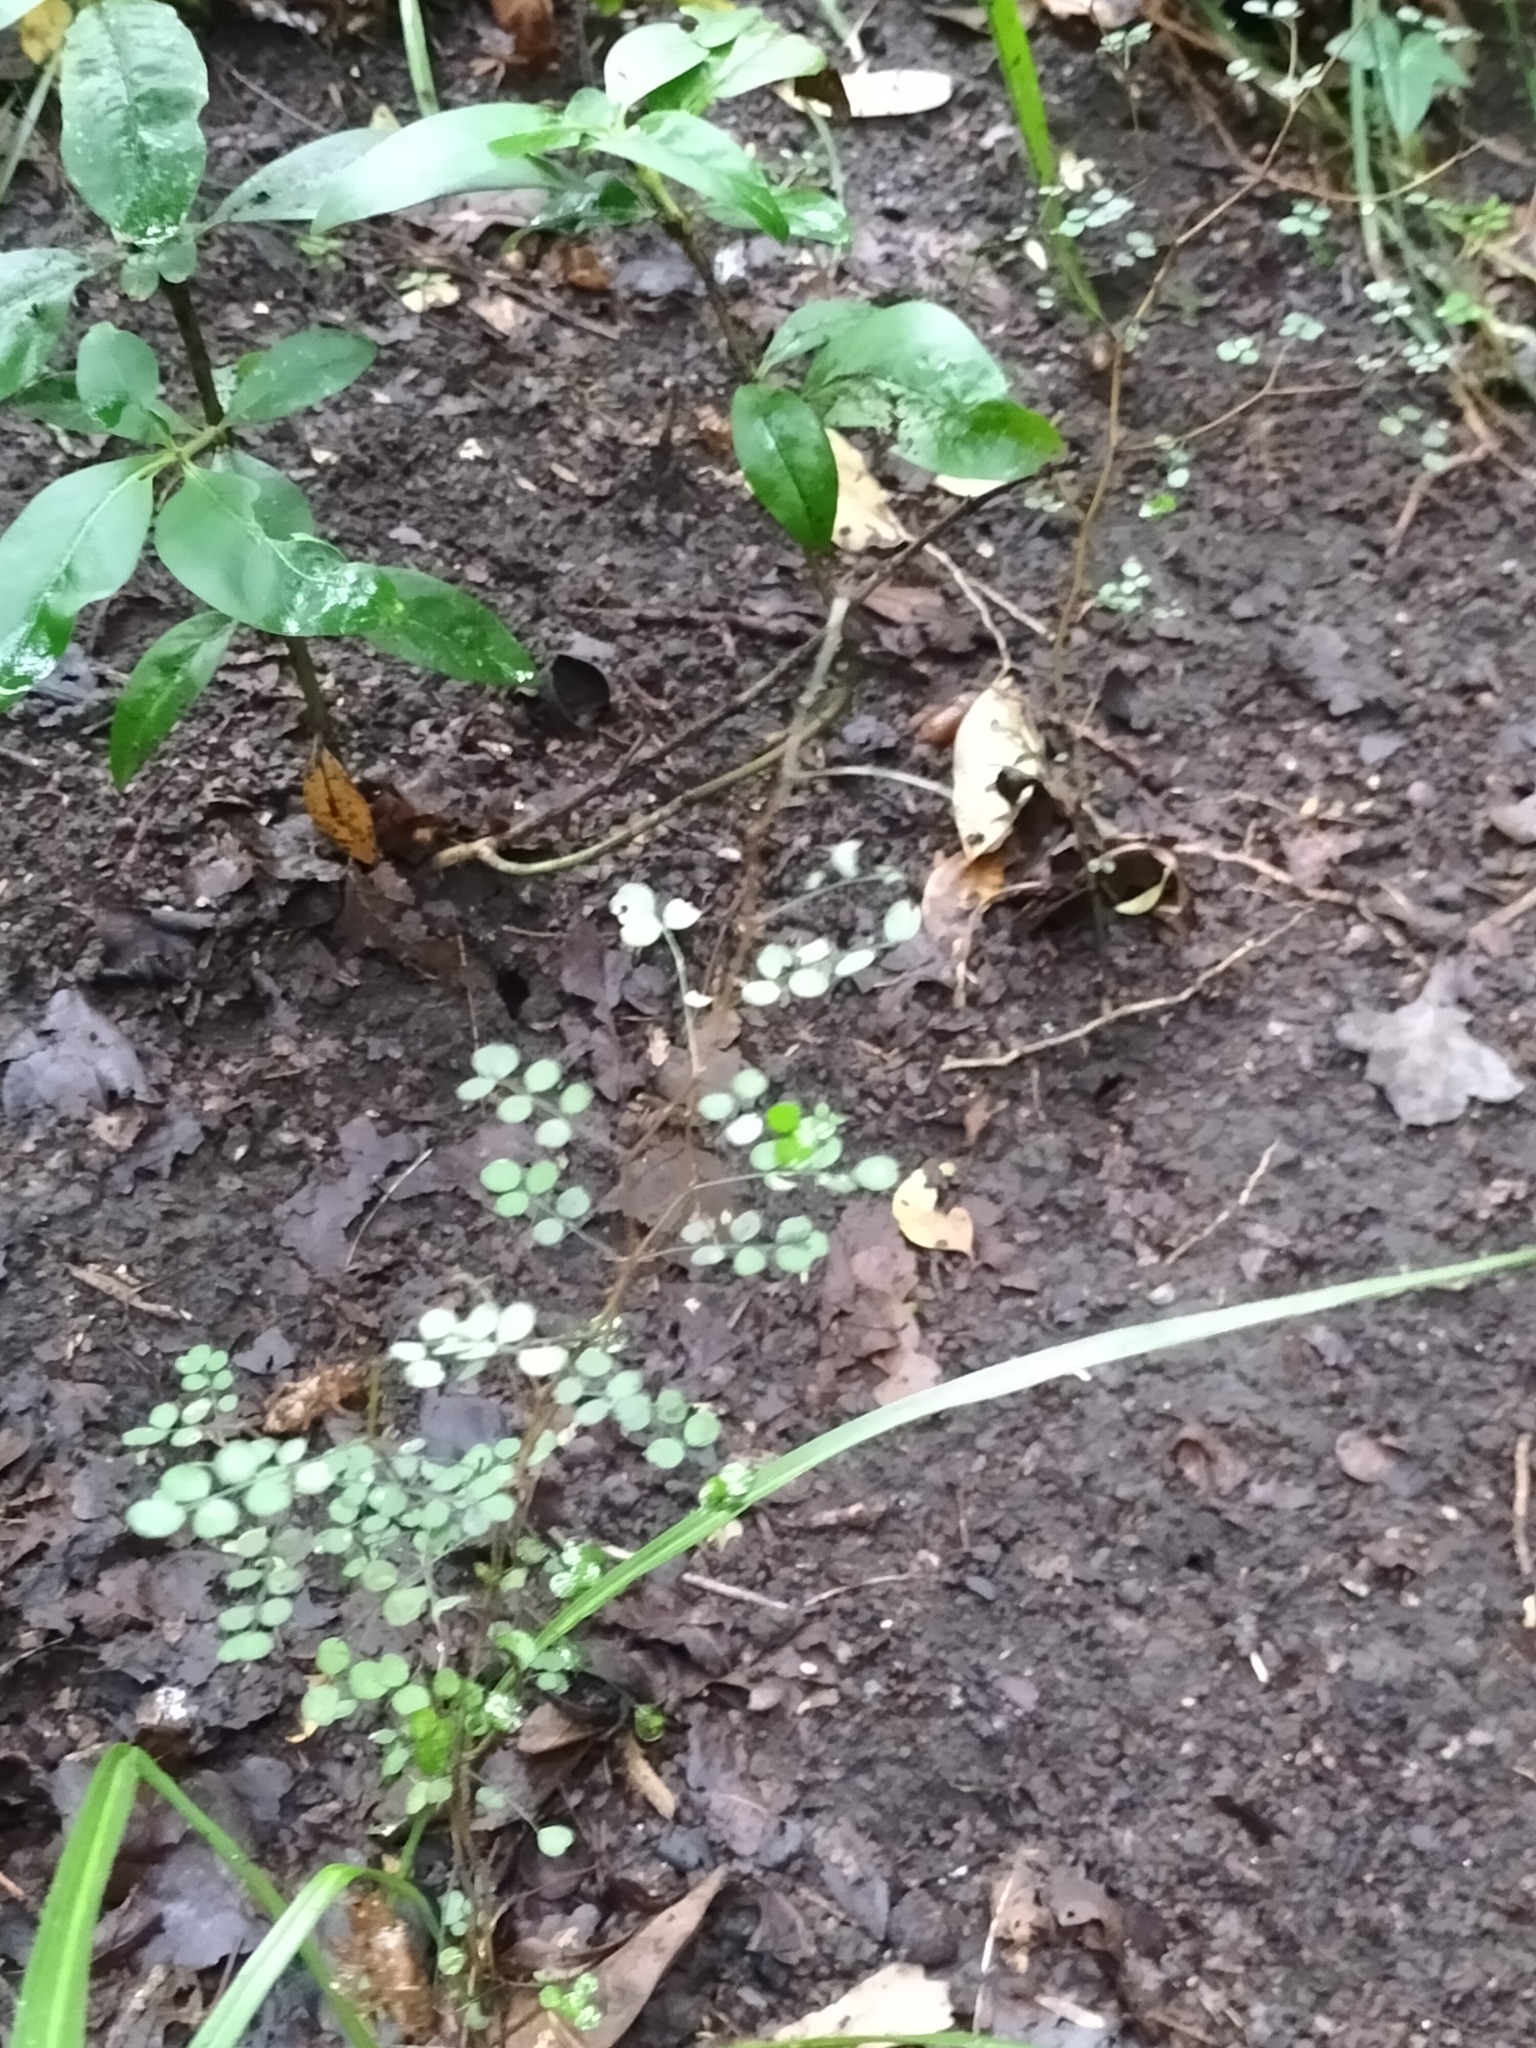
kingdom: Plantae
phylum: Tracheophyta
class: Magnoliopsida
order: Fabales
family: Fabaceae
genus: Sophora
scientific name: Sophora microphylla
